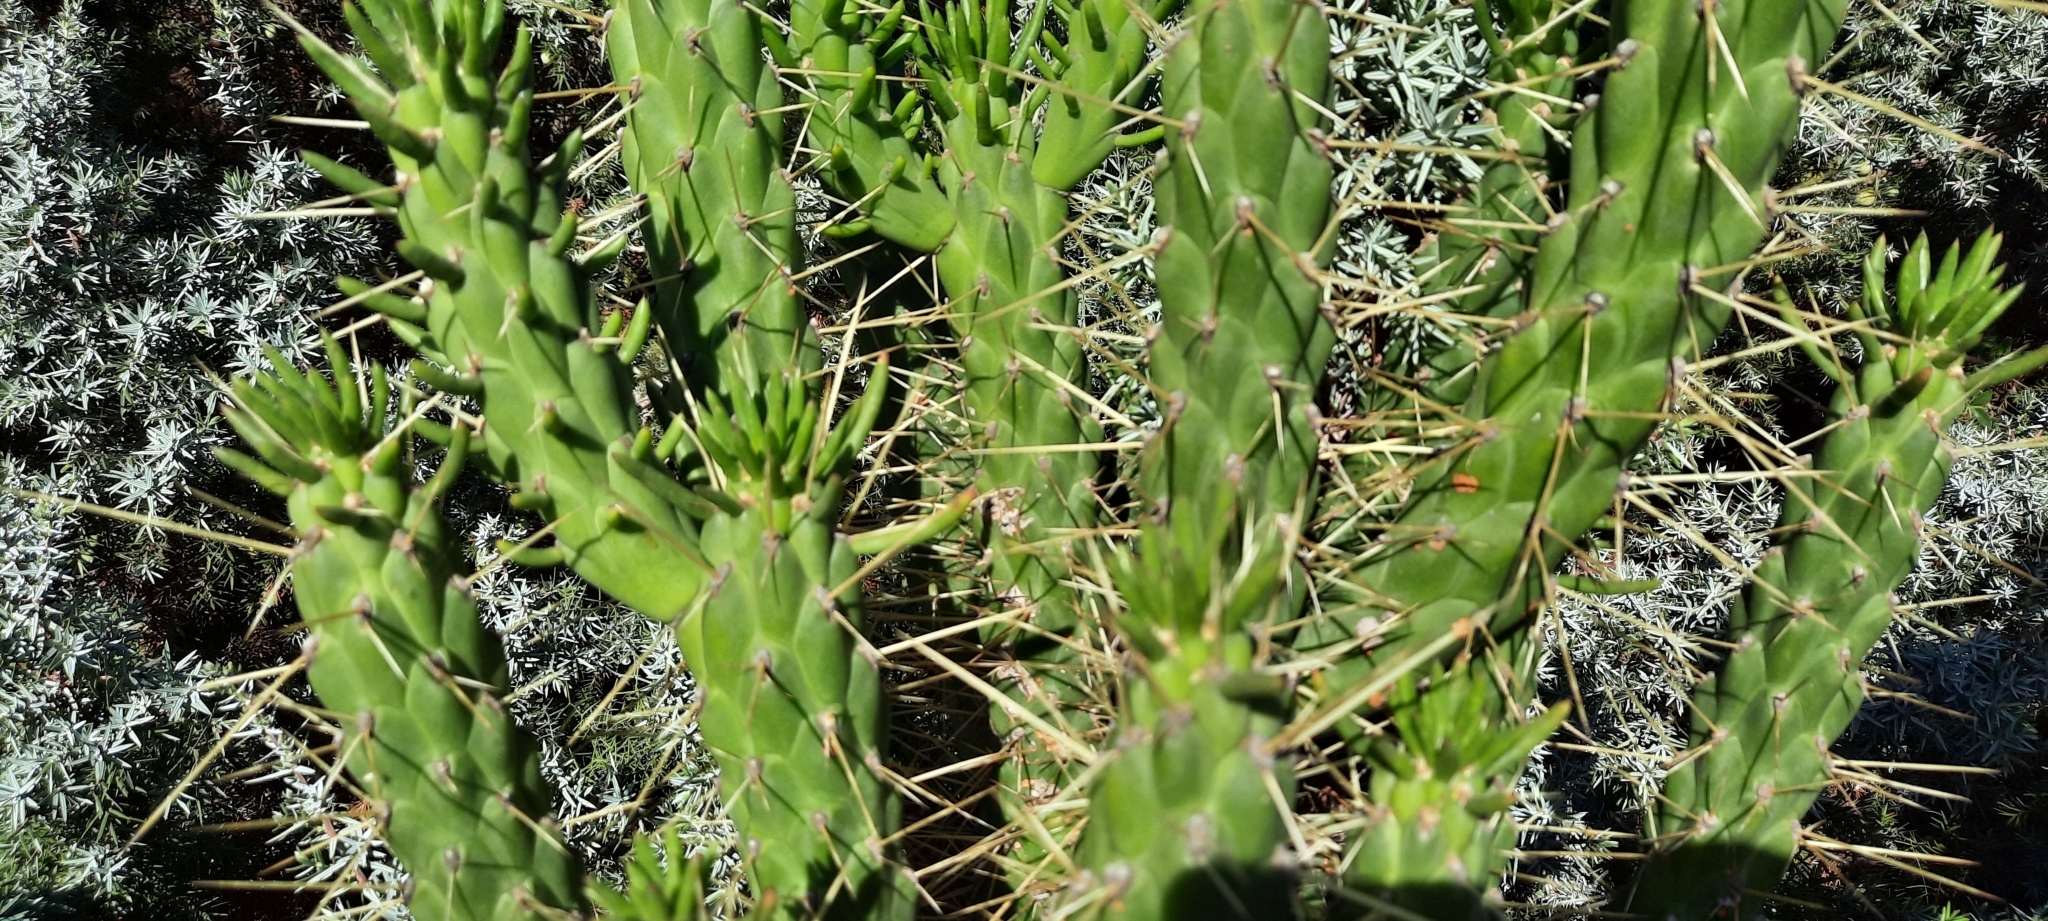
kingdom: Plantae
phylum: Tracheophyta
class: Magnoliopsida
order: Caryophyllales
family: Cactaceae
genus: Austrocylindropuntia
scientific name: Austrocylindropuntia subulata
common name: Eve's needle cactus
